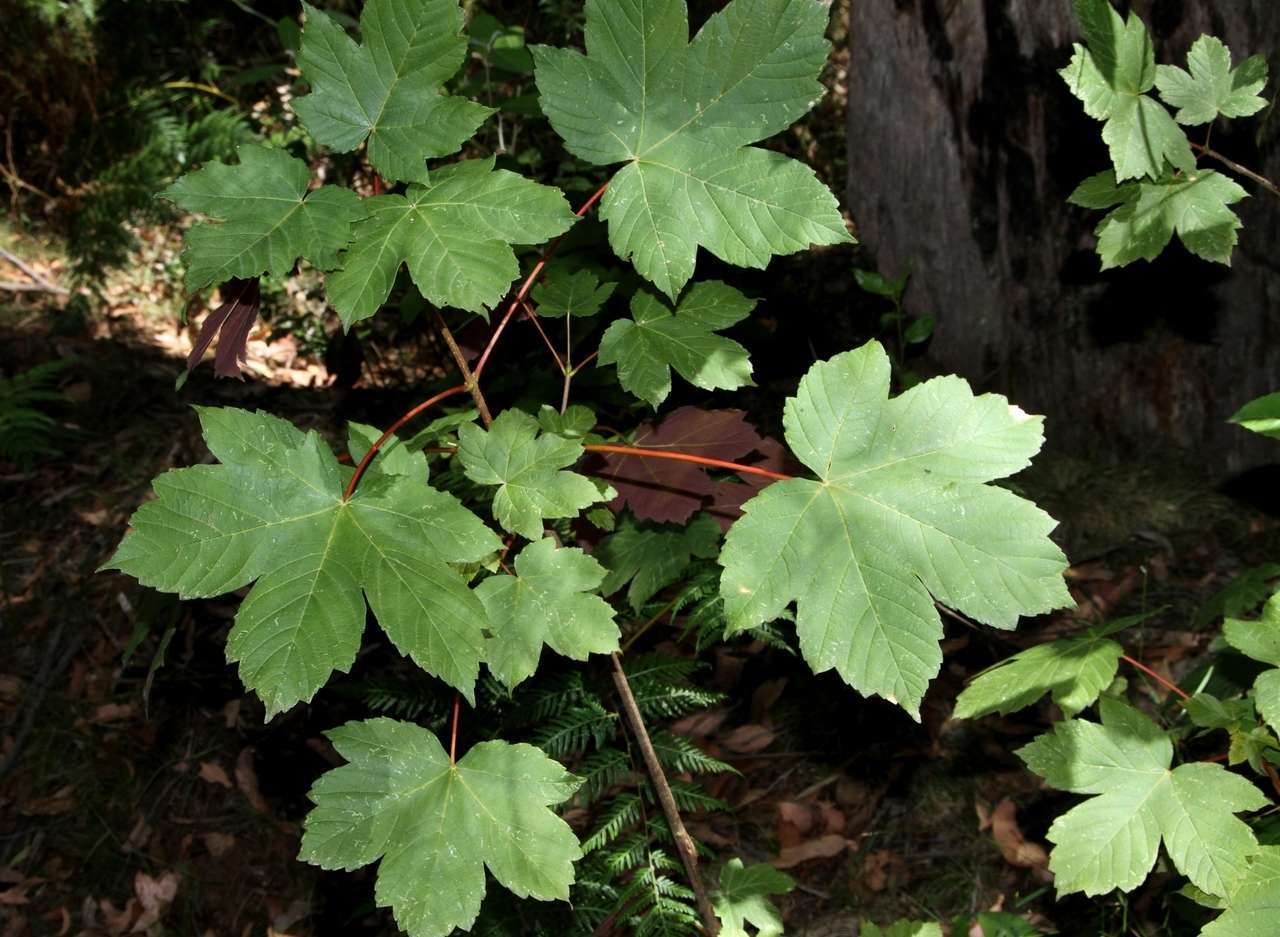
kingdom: Plantae
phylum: Tracheophyta
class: Magnoliopsida
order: Sapindales
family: Sapindaceae
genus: Acer
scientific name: Acer pseudoplatanus
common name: Sycamore
